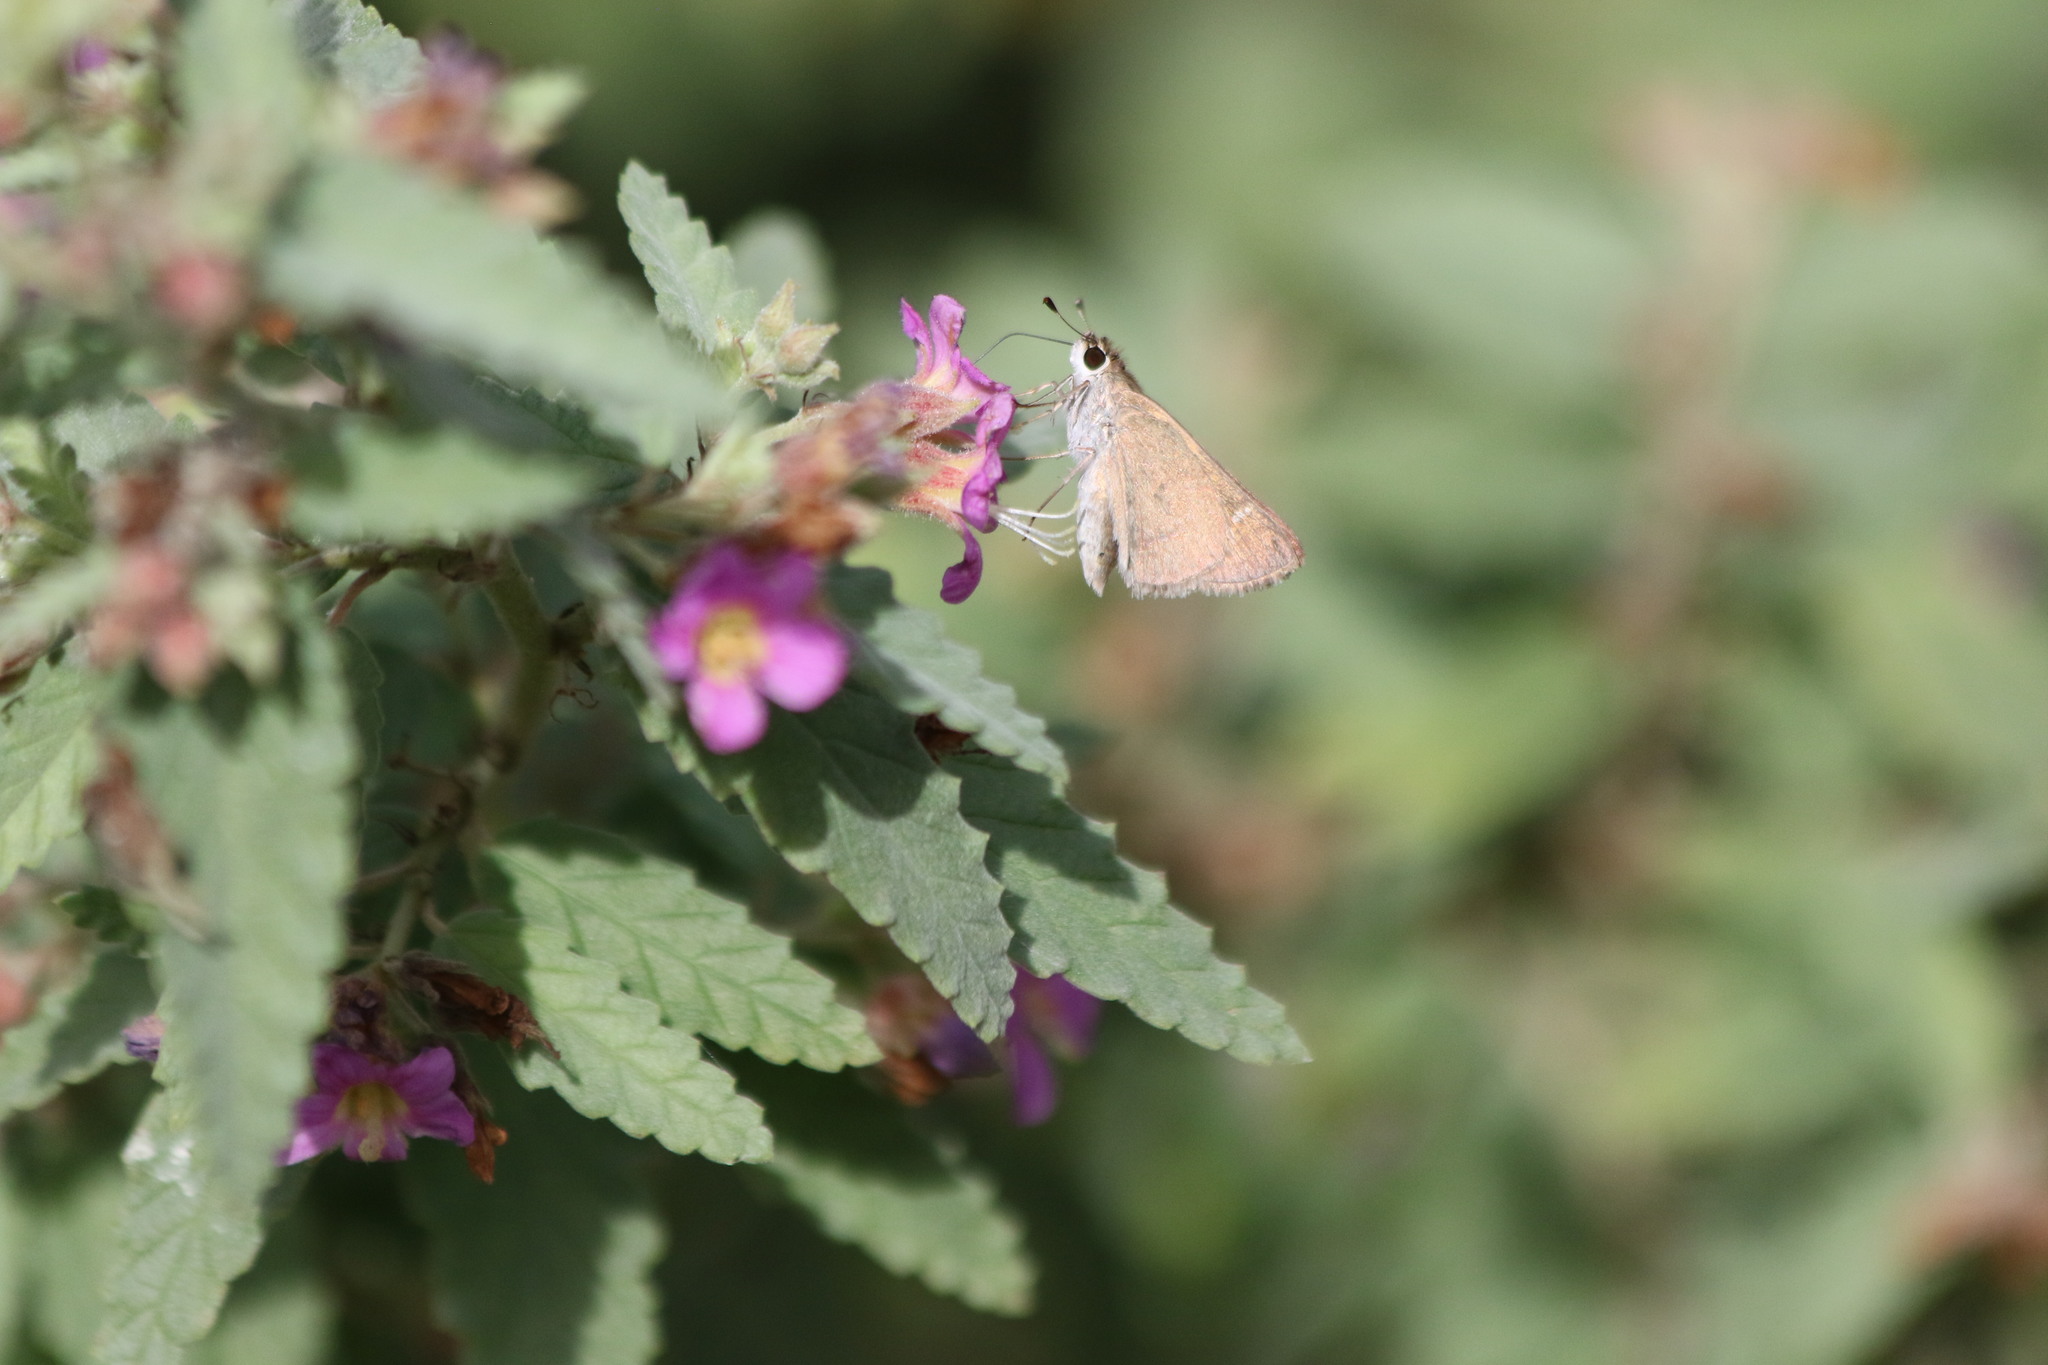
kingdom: Animalia
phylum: Arthropoda
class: Insecta
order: Lepidoptera
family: Hesperiidae
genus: Lerodea
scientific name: Lerodea eufala
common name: Eufala skipper
